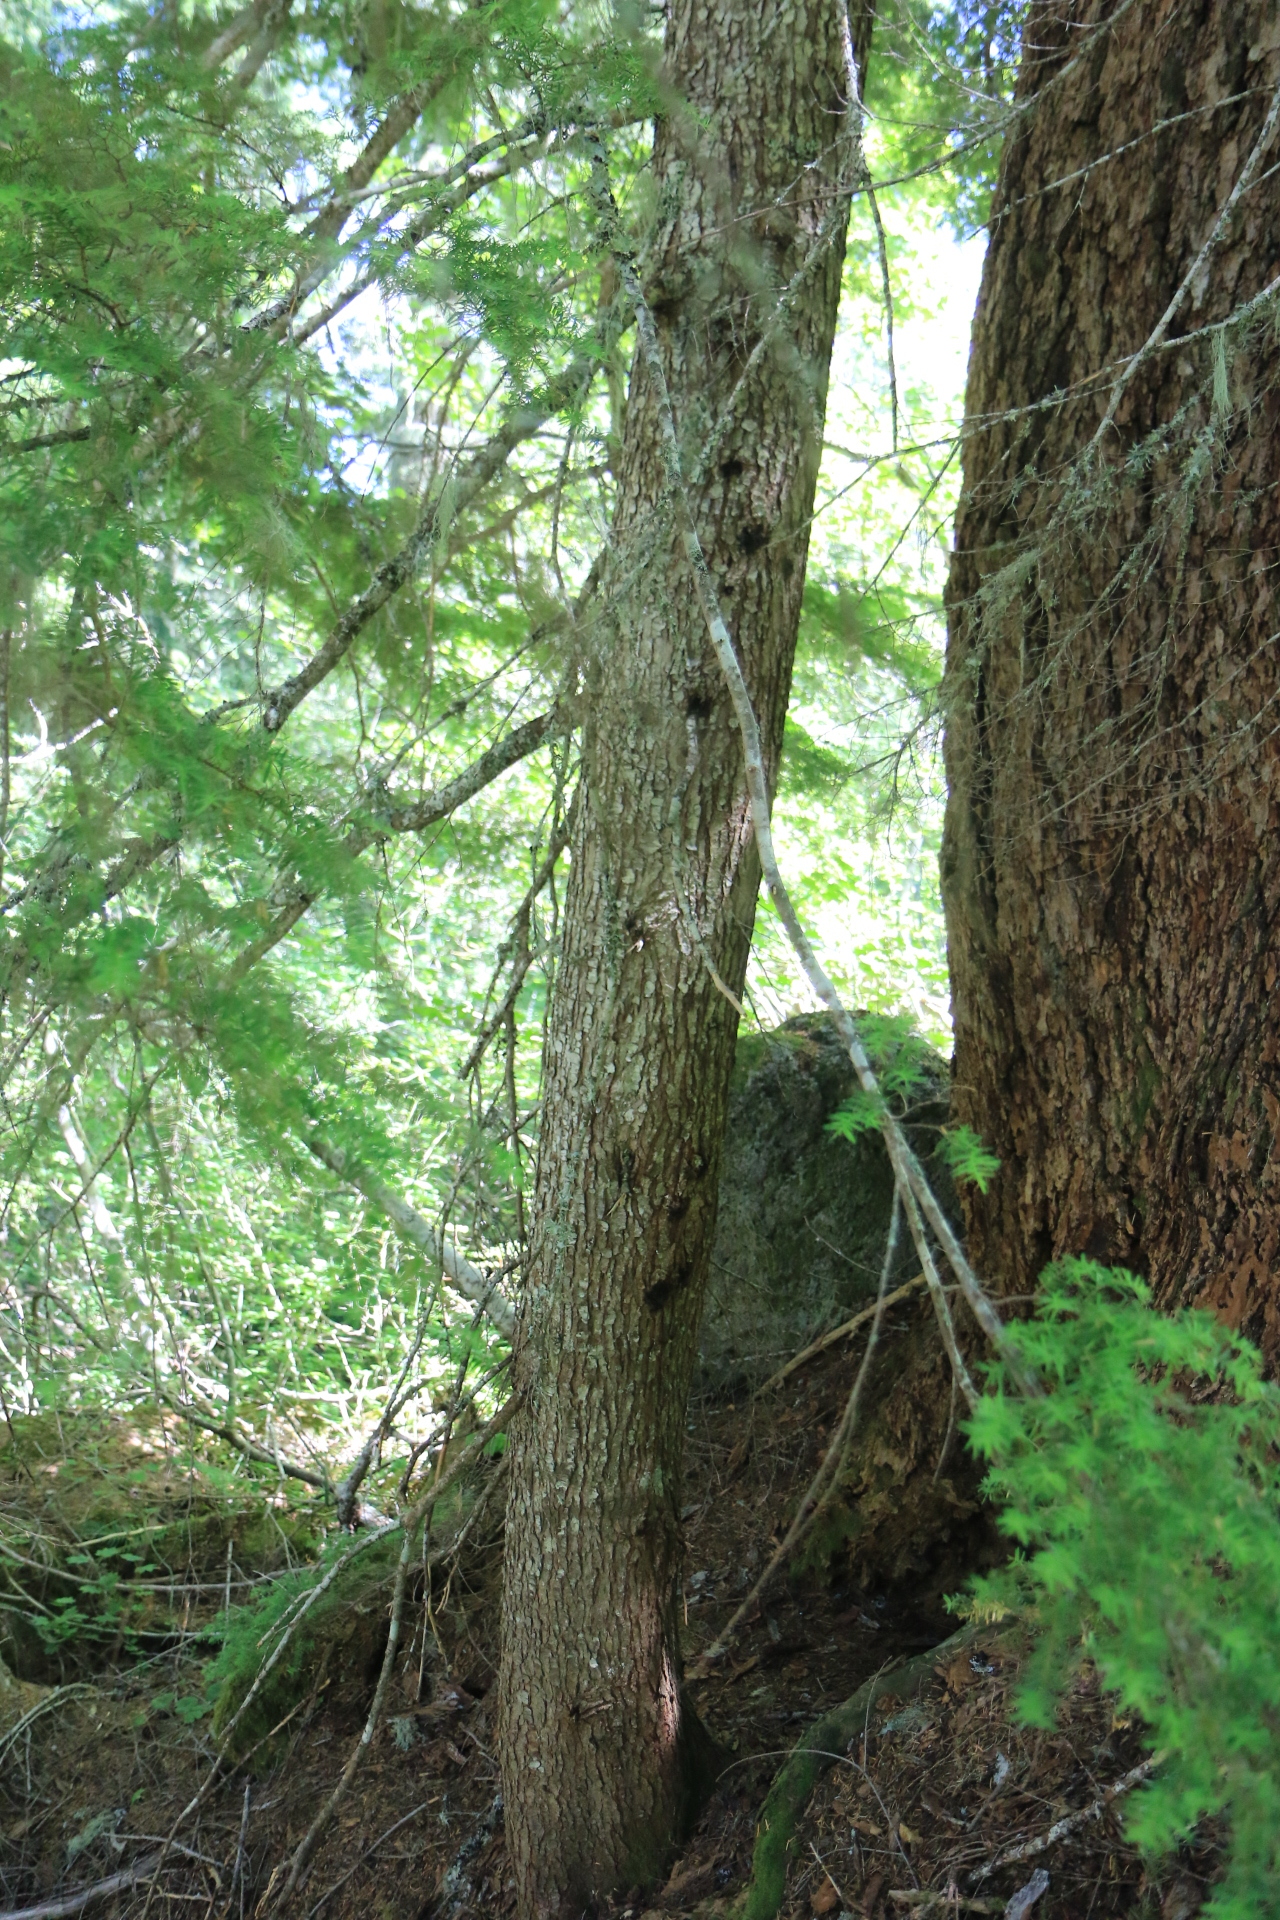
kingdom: Plantae
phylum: Tracheophyta
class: Pinopsida
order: Pinales
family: Pinaceae
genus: Tsuga
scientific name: Tsuga heterophylla
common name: Western hemlock
